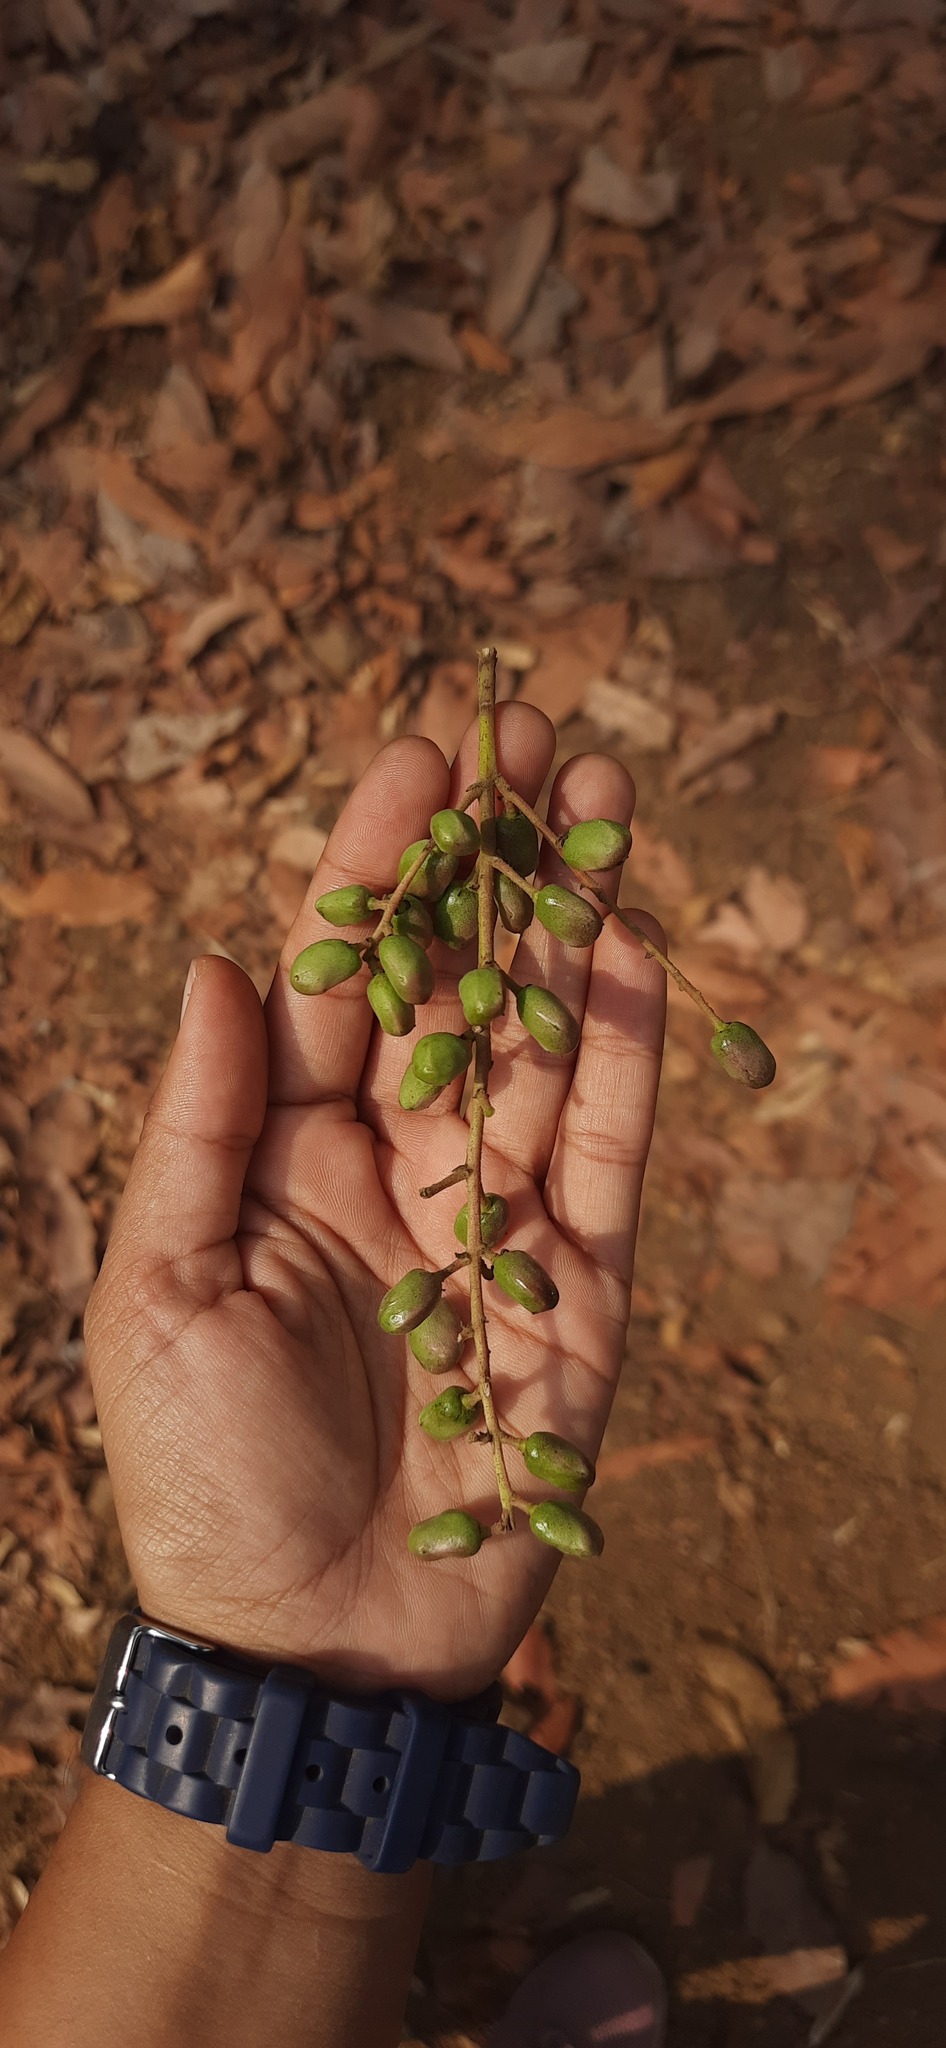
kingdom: Plantae
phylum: Tracheophyta
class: Magnoliopsida
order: Sapindales
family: Anacardiaceae
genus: Lannea
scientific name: Lannea coromandelica
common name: Indian ash tree
